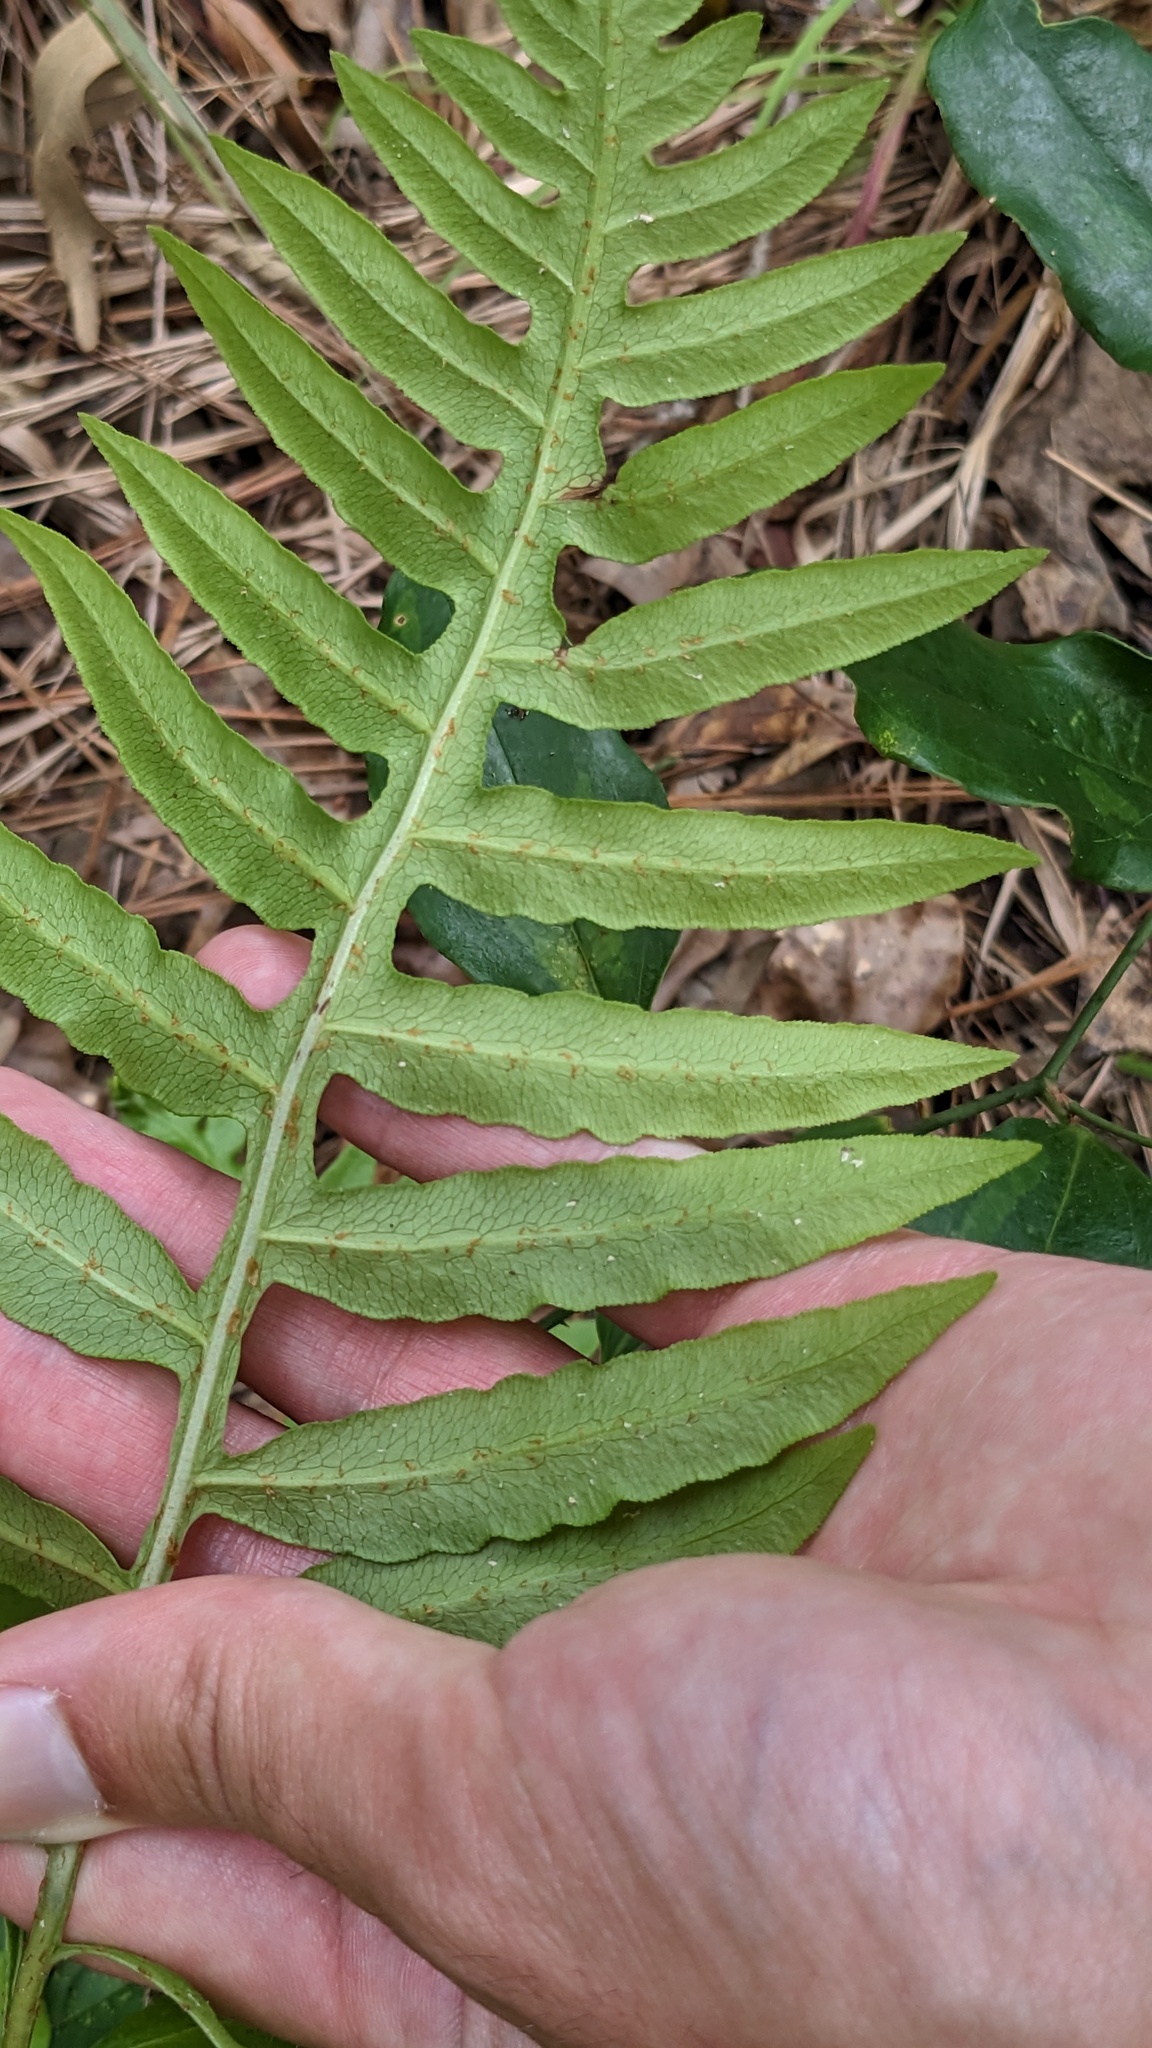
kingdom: Plantae
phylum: Tracheophyta
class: Polypodiopsida
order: Polypodiales
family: Blechnaceae
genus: Lorinseria
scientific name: Lorinseria areolata
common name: Dwarf chain fern
